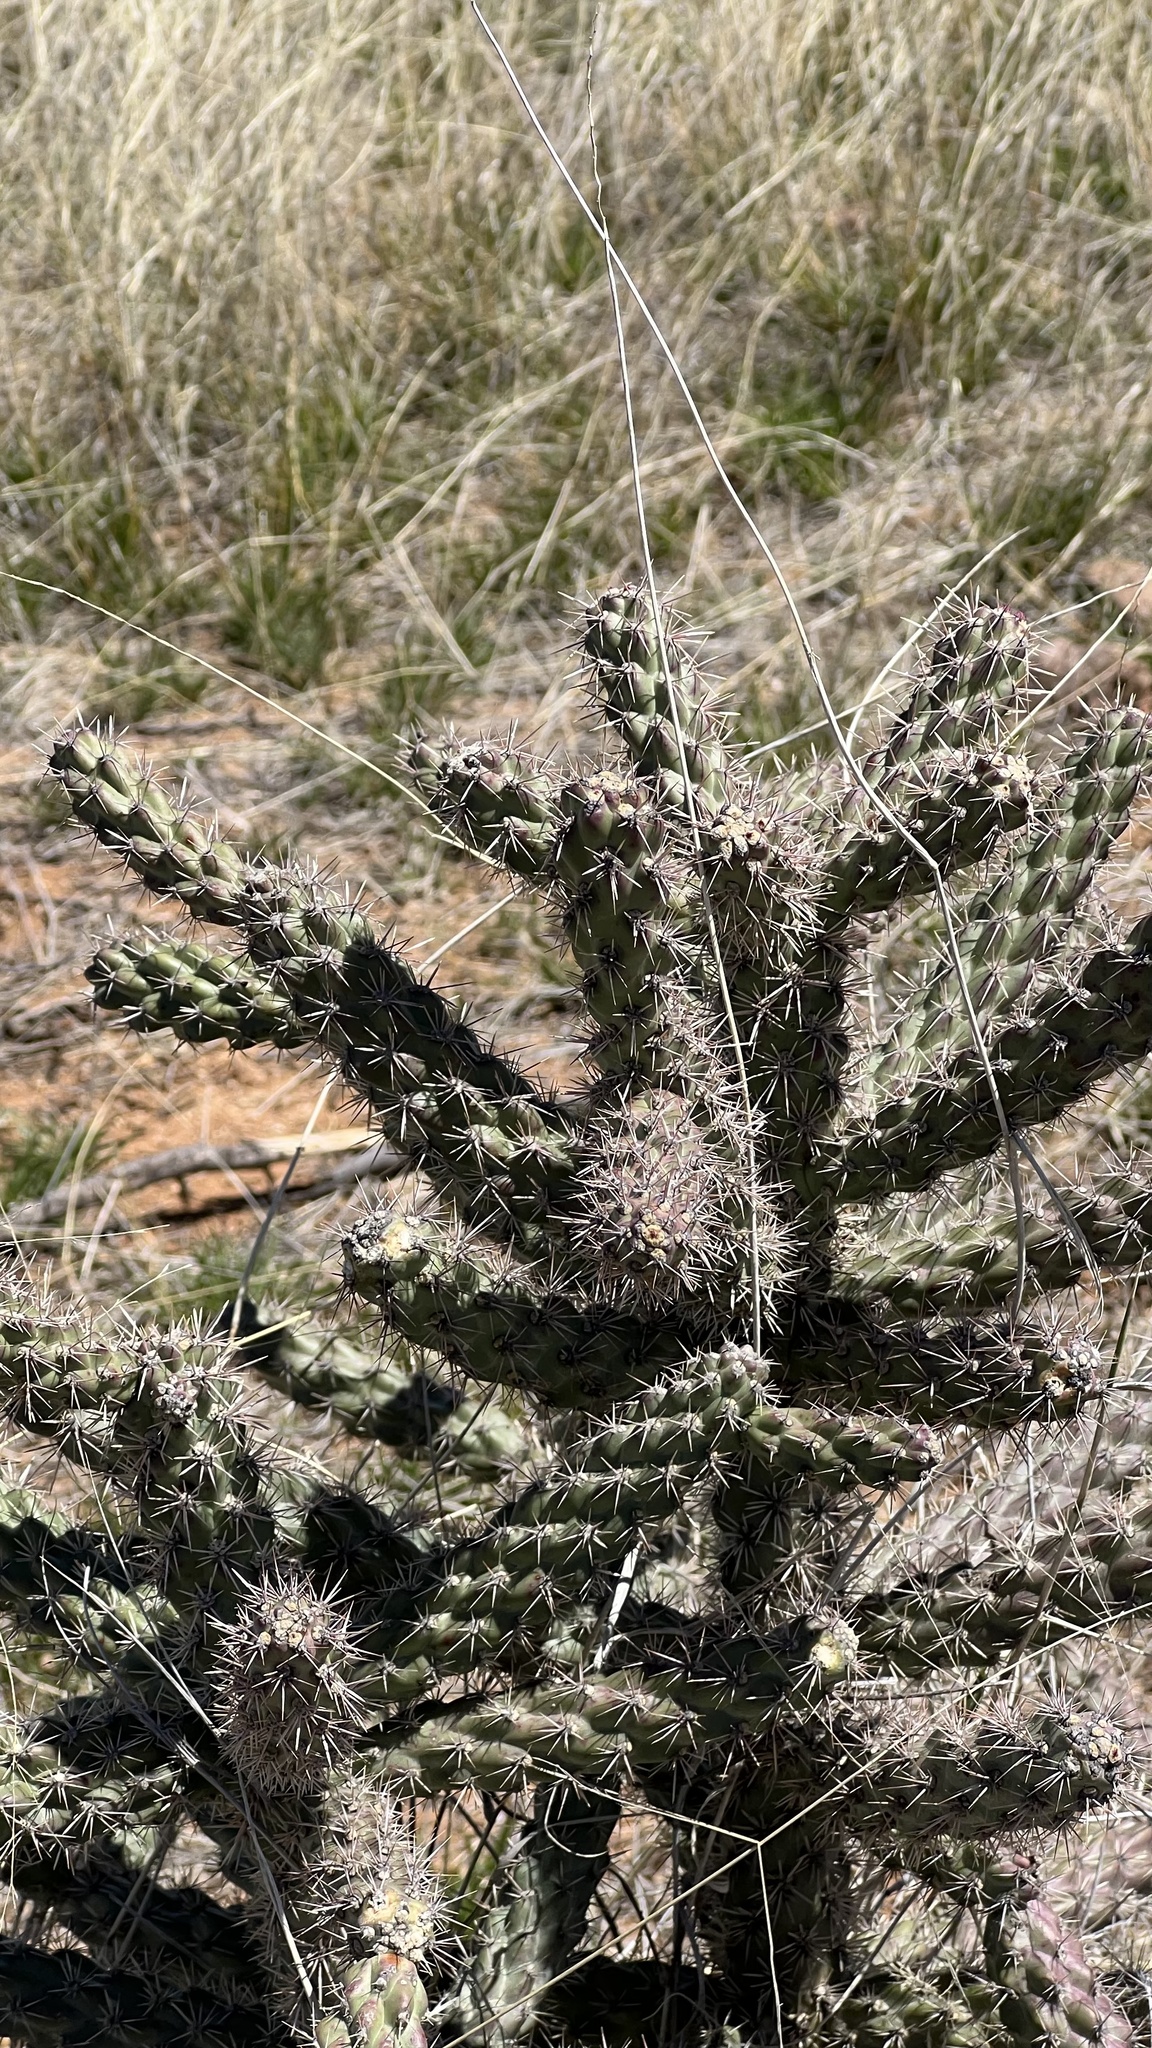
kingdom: Plantae
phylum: Tracheophyta
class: Magnoliopsida
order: Caryophyllales
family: Cactaceae
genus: Cylindropuntia
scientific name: Cylindropuntia imbricata
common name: Candelabrum cactus
